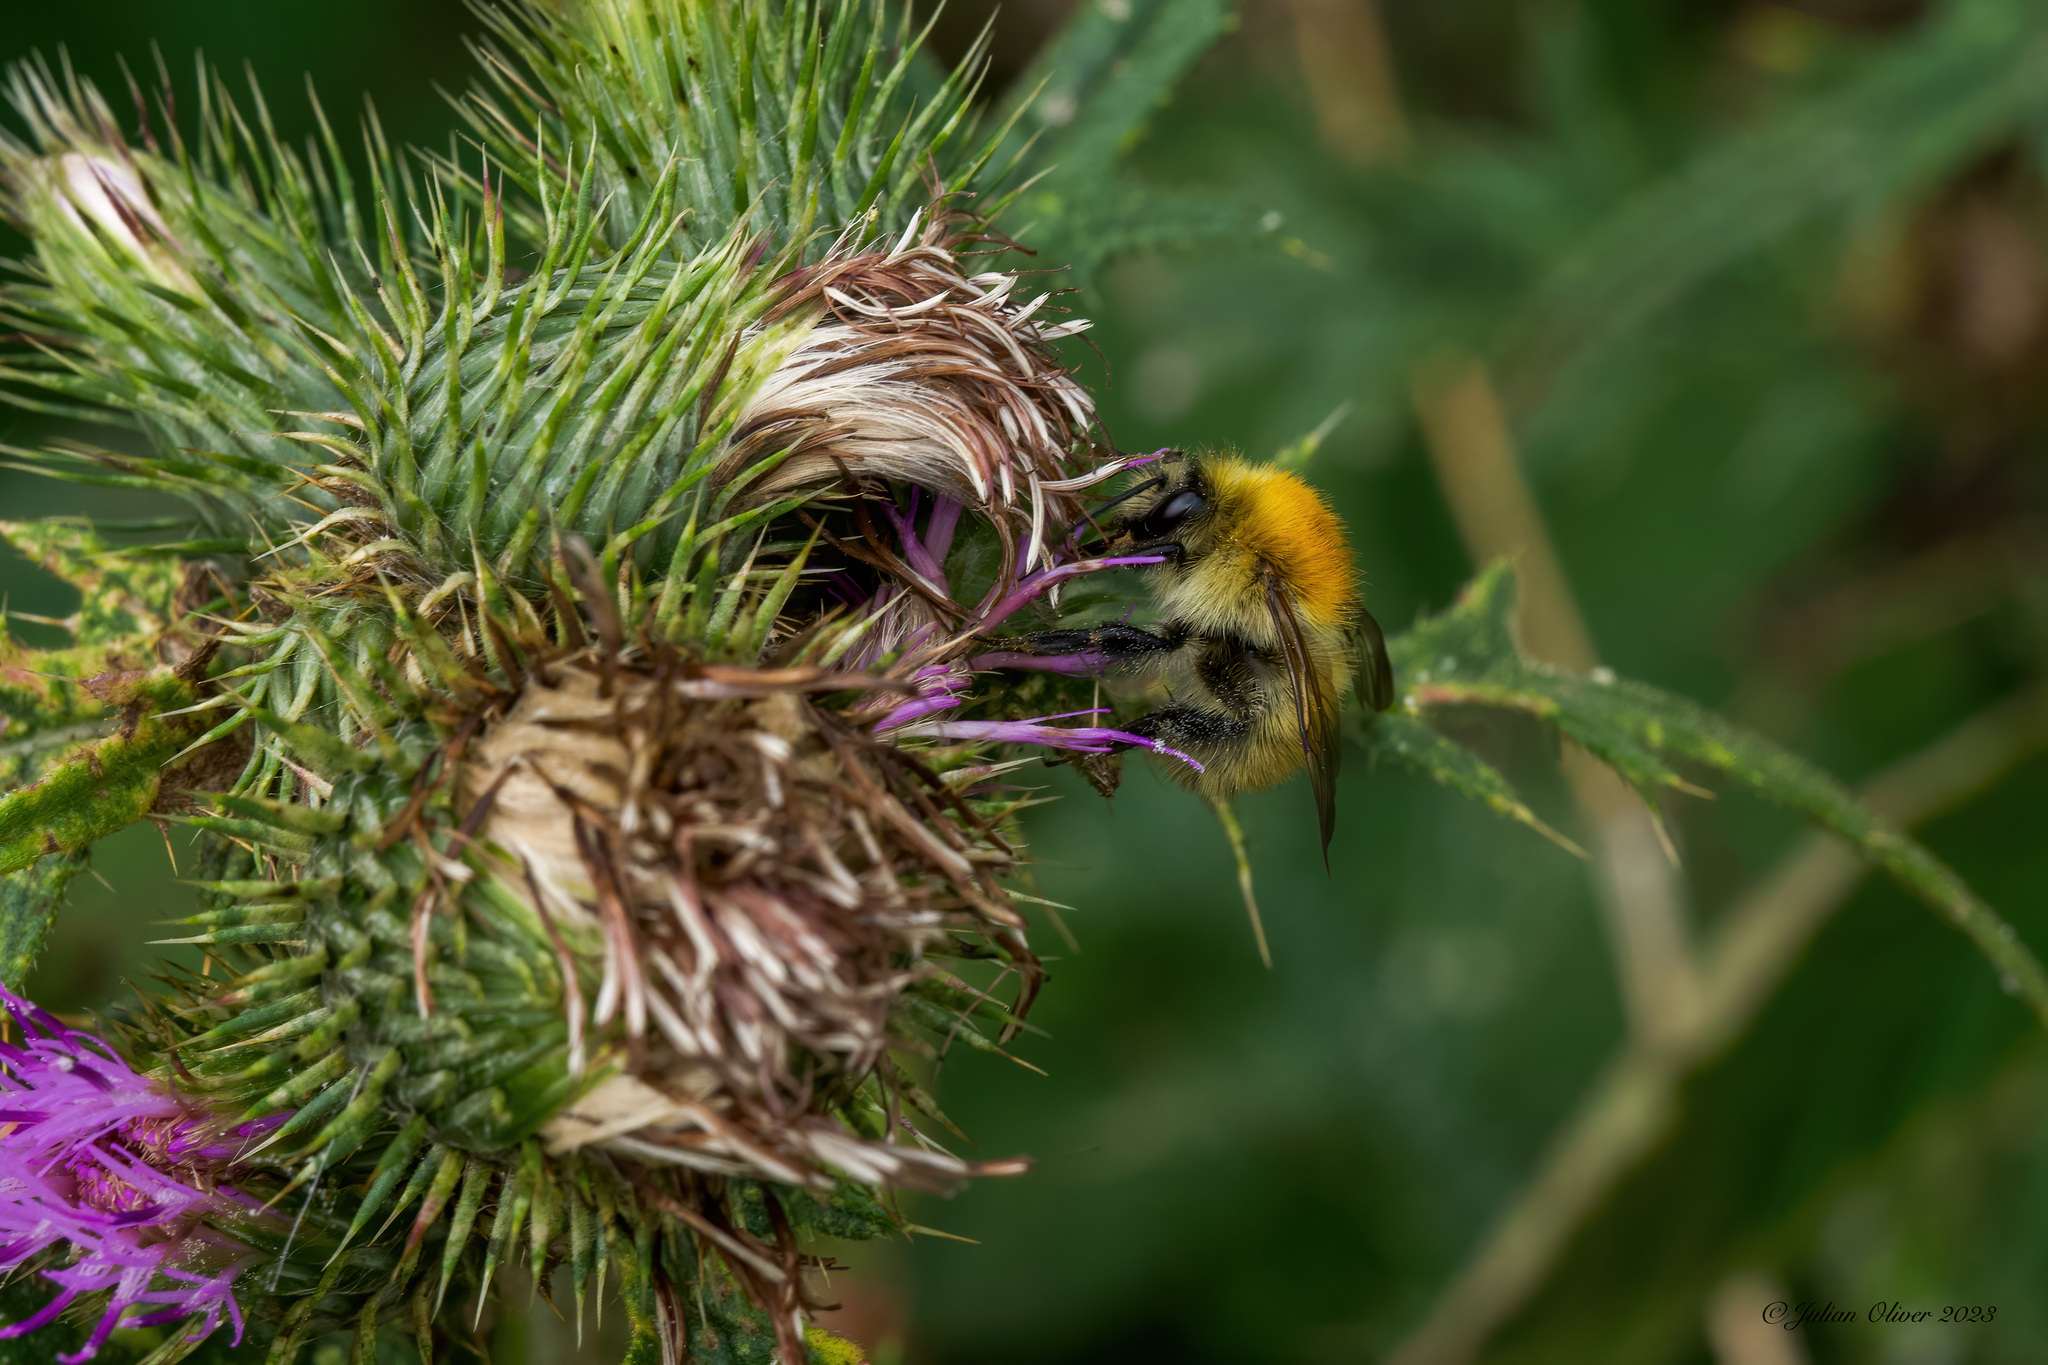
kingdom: Animalia
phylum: Arthropoda
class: Insecta
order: Hymenoptera
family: Apidae
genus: Bombus
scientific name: Bombus pascuorum
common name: Common carder bee
